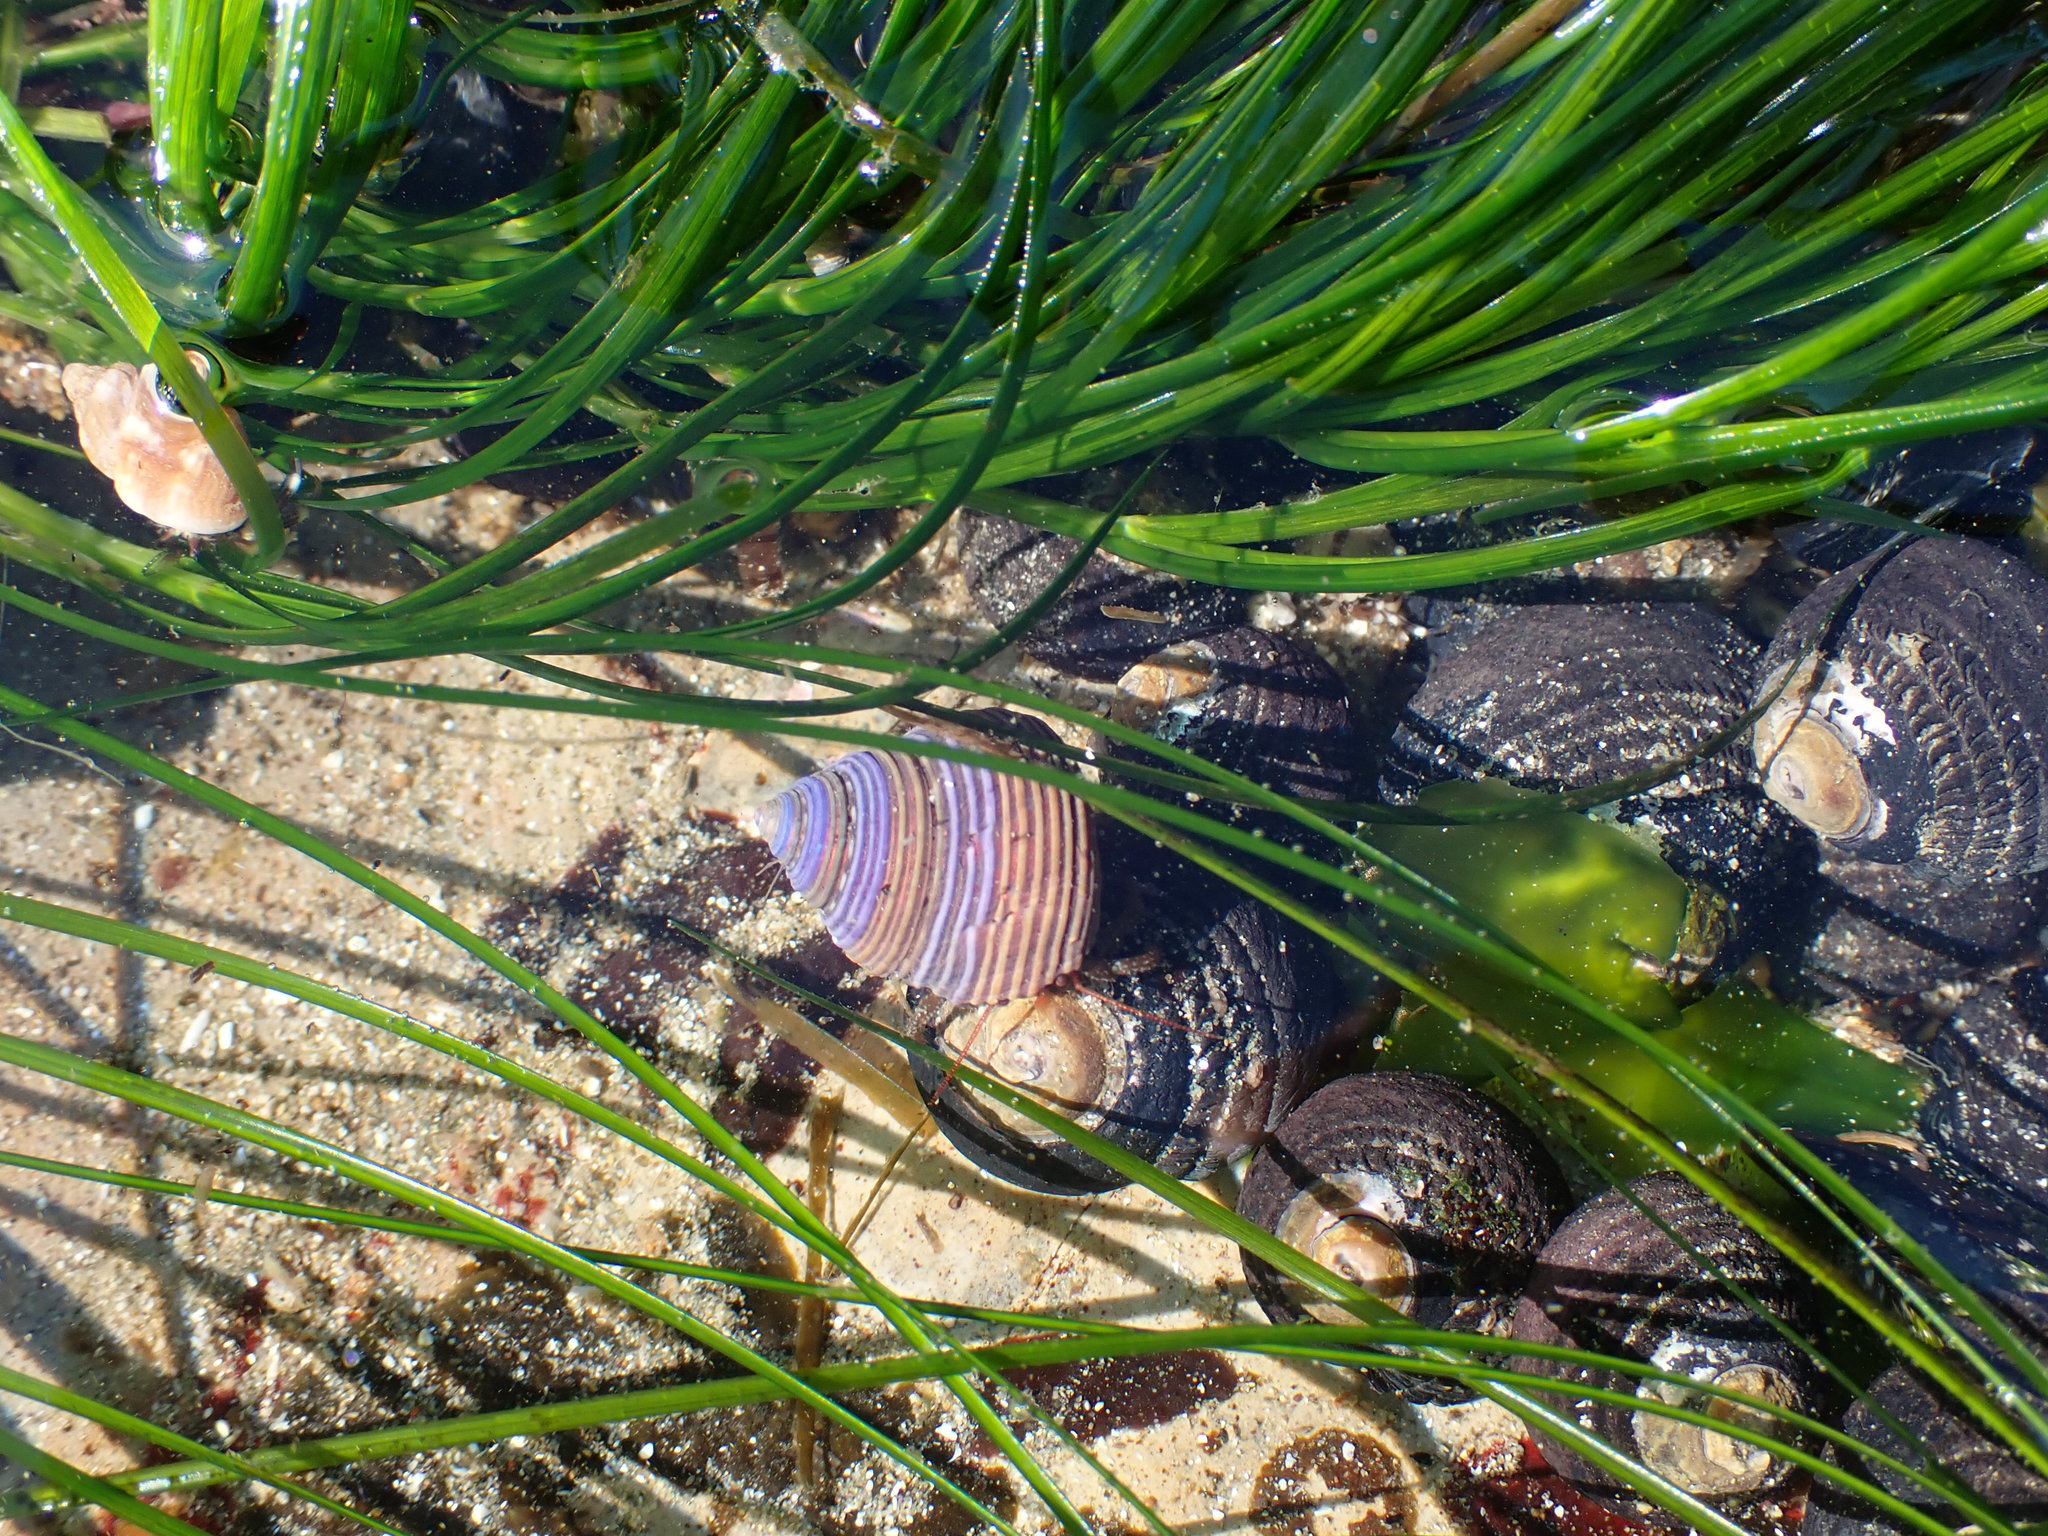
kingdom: Animalia
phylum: Mollusca
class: Gastropoda
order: Trochida
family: Calliostomatidae
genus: Calliostoma
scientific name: Calliostoma ligatum
